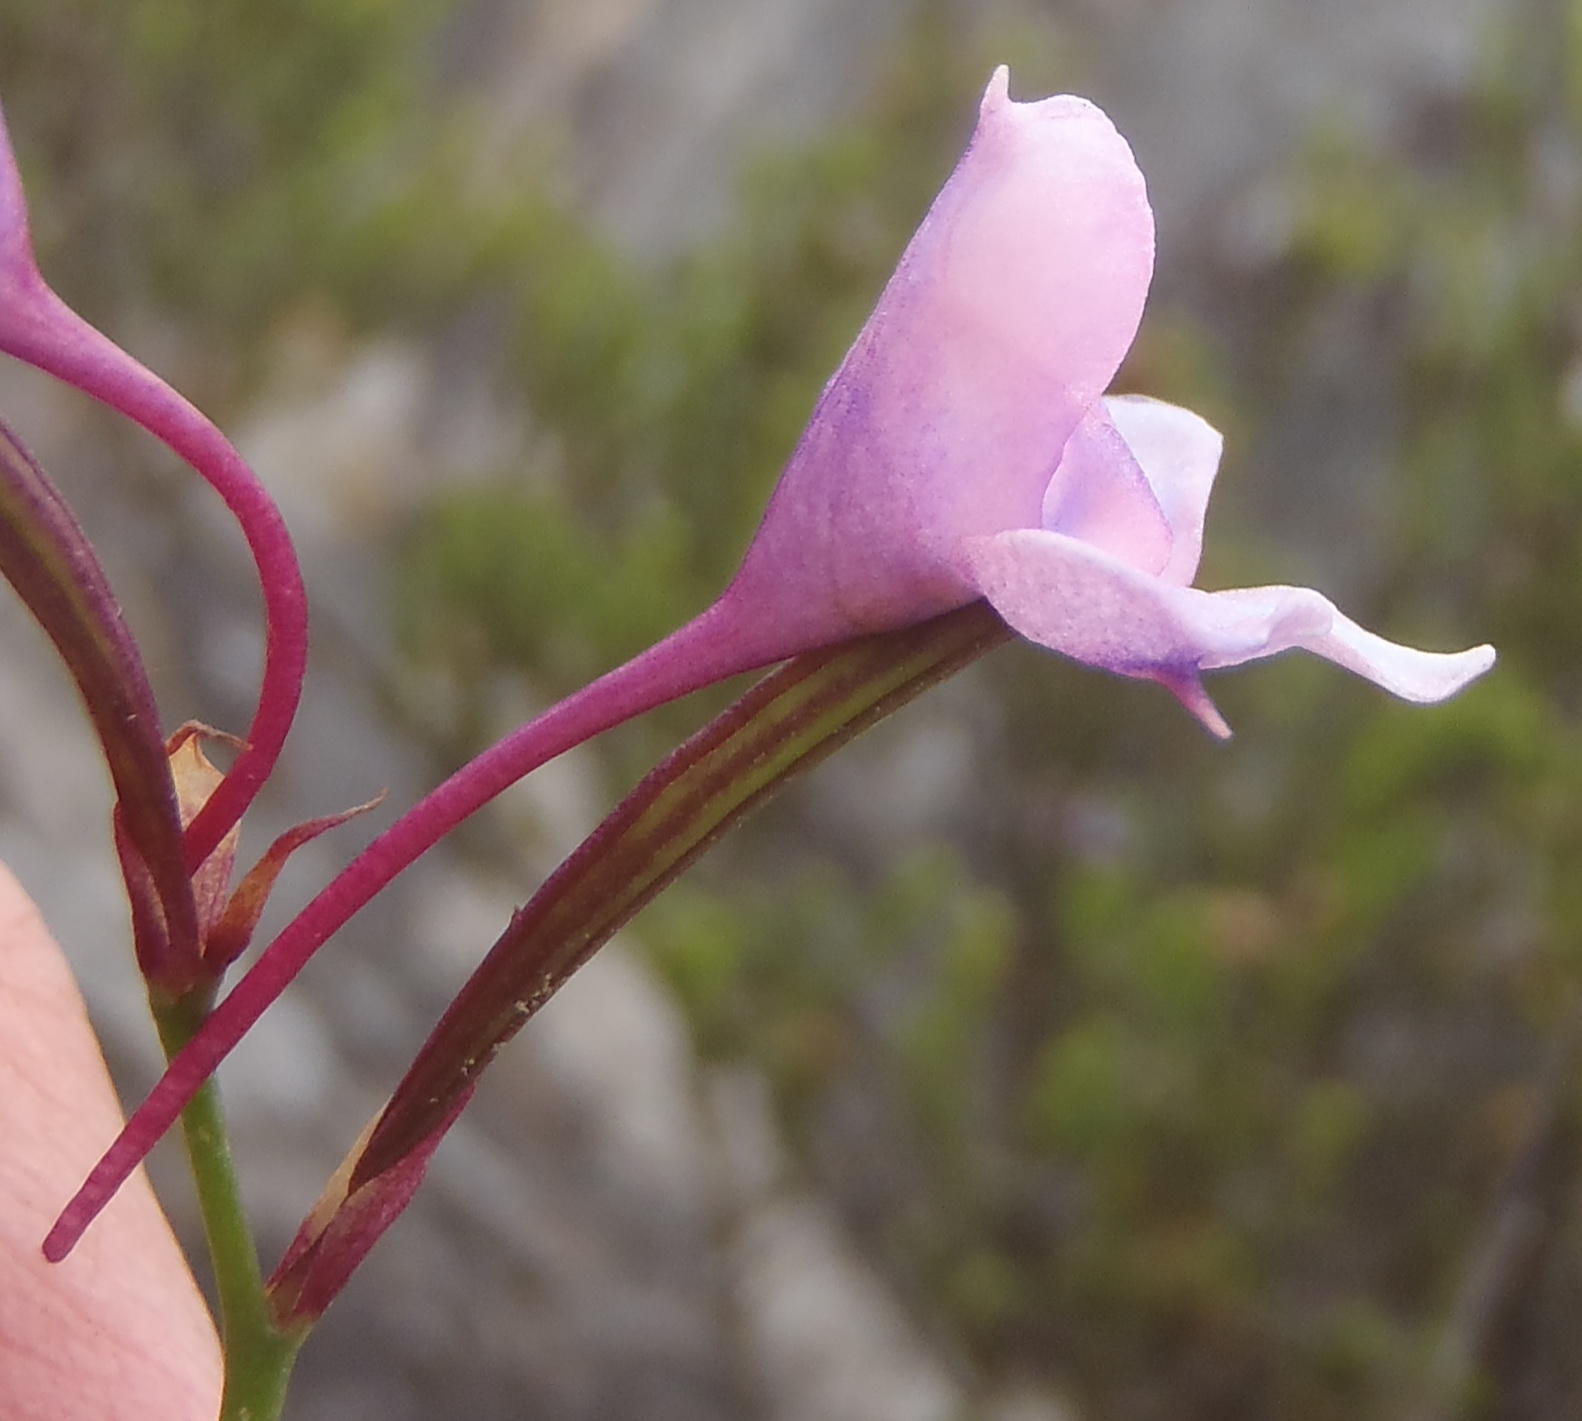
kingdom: Plantae
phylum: Tracheophyta
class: Liliopsida
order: Asparagales
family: Orchidaceae
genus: Disa
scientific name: Disa arida
